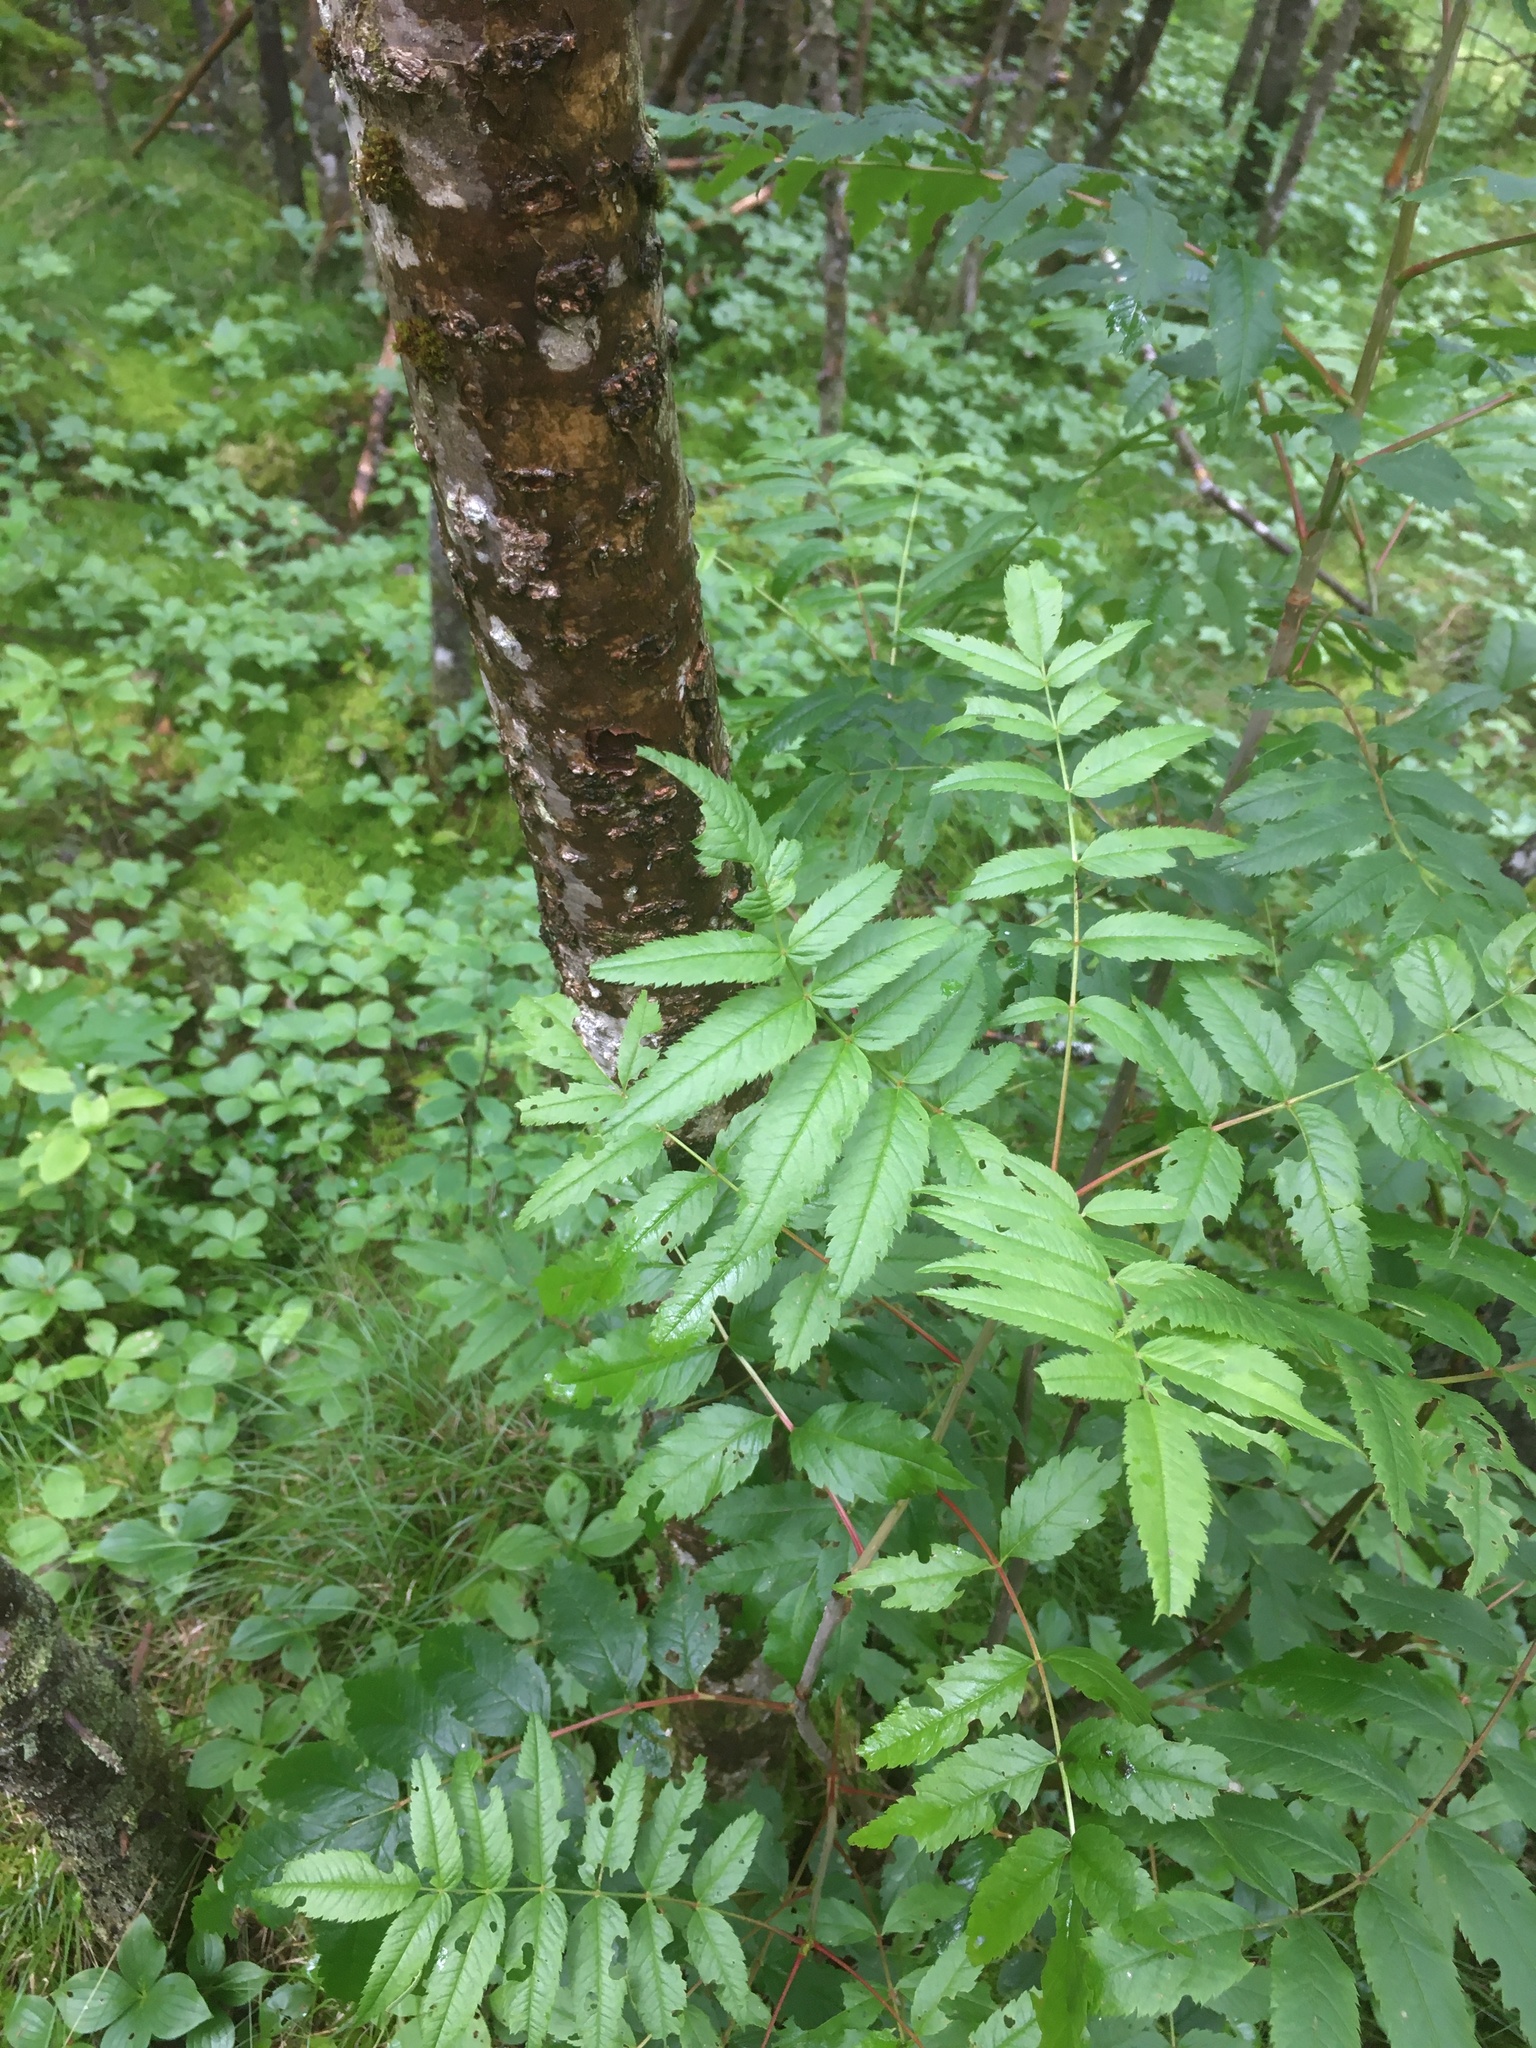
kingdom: Plantae
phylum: Tracheophyta
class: Magnoliopsida
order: Rosales
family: Rosaceae
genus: Sorbus
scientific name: Sorbus americana
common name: American mountain-ash
